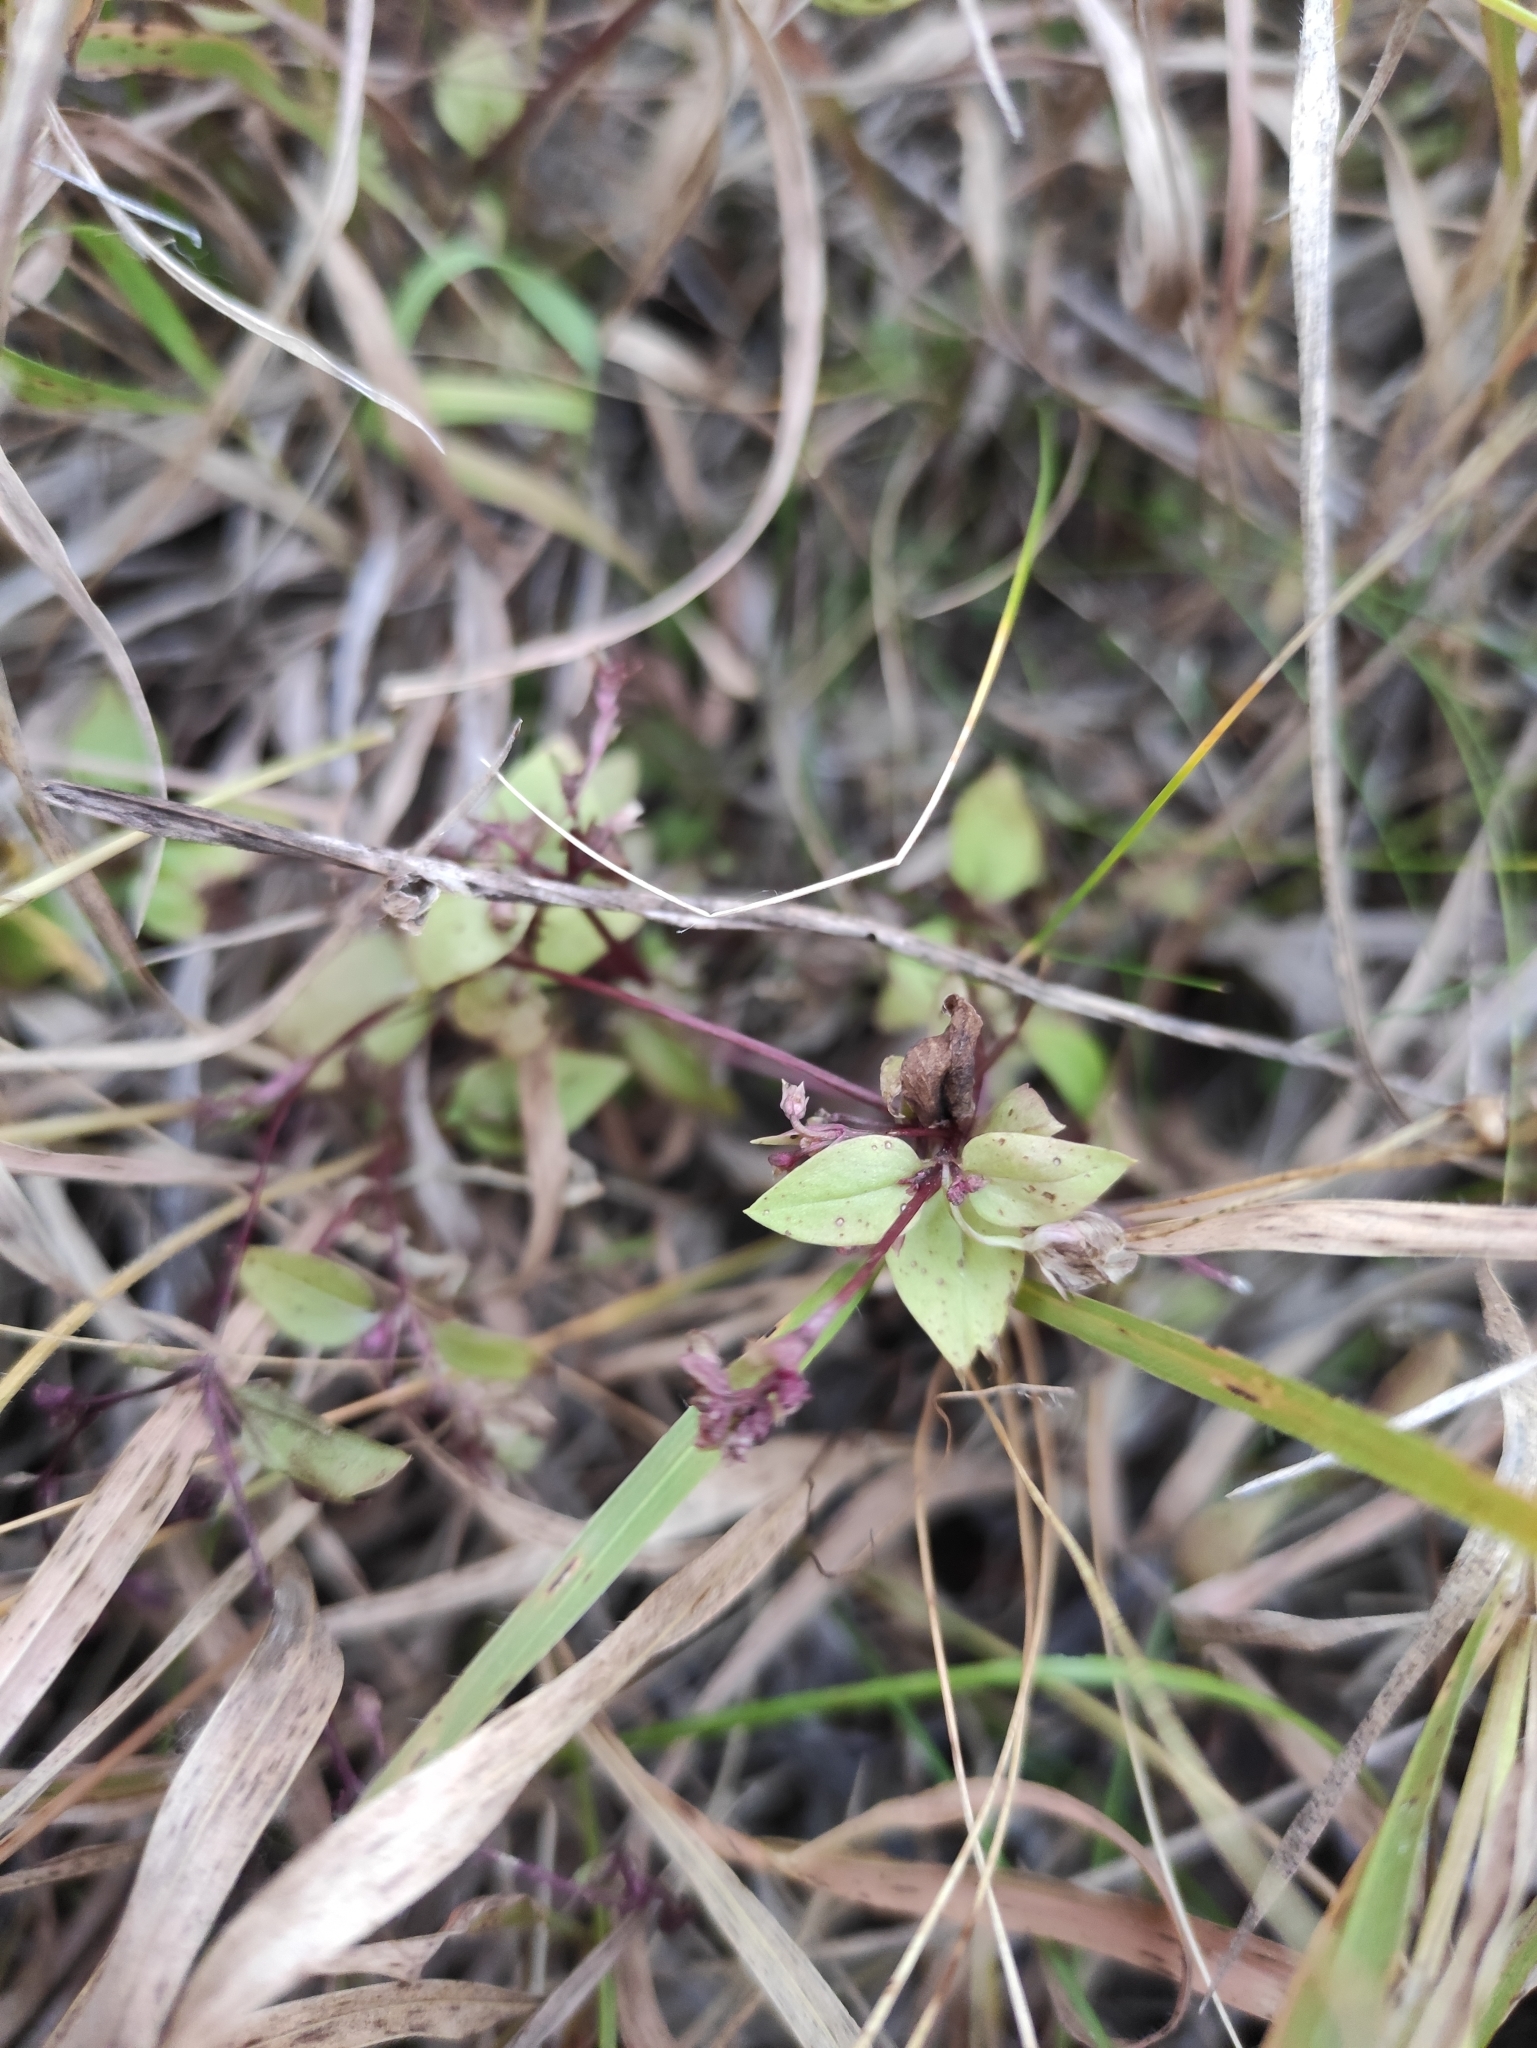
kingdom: Plantae
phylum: Tracheophyta
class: Magnoliopsida
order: Gentianales
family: Gentianaceae
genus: Swertia
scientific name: Swertia dichotoma
